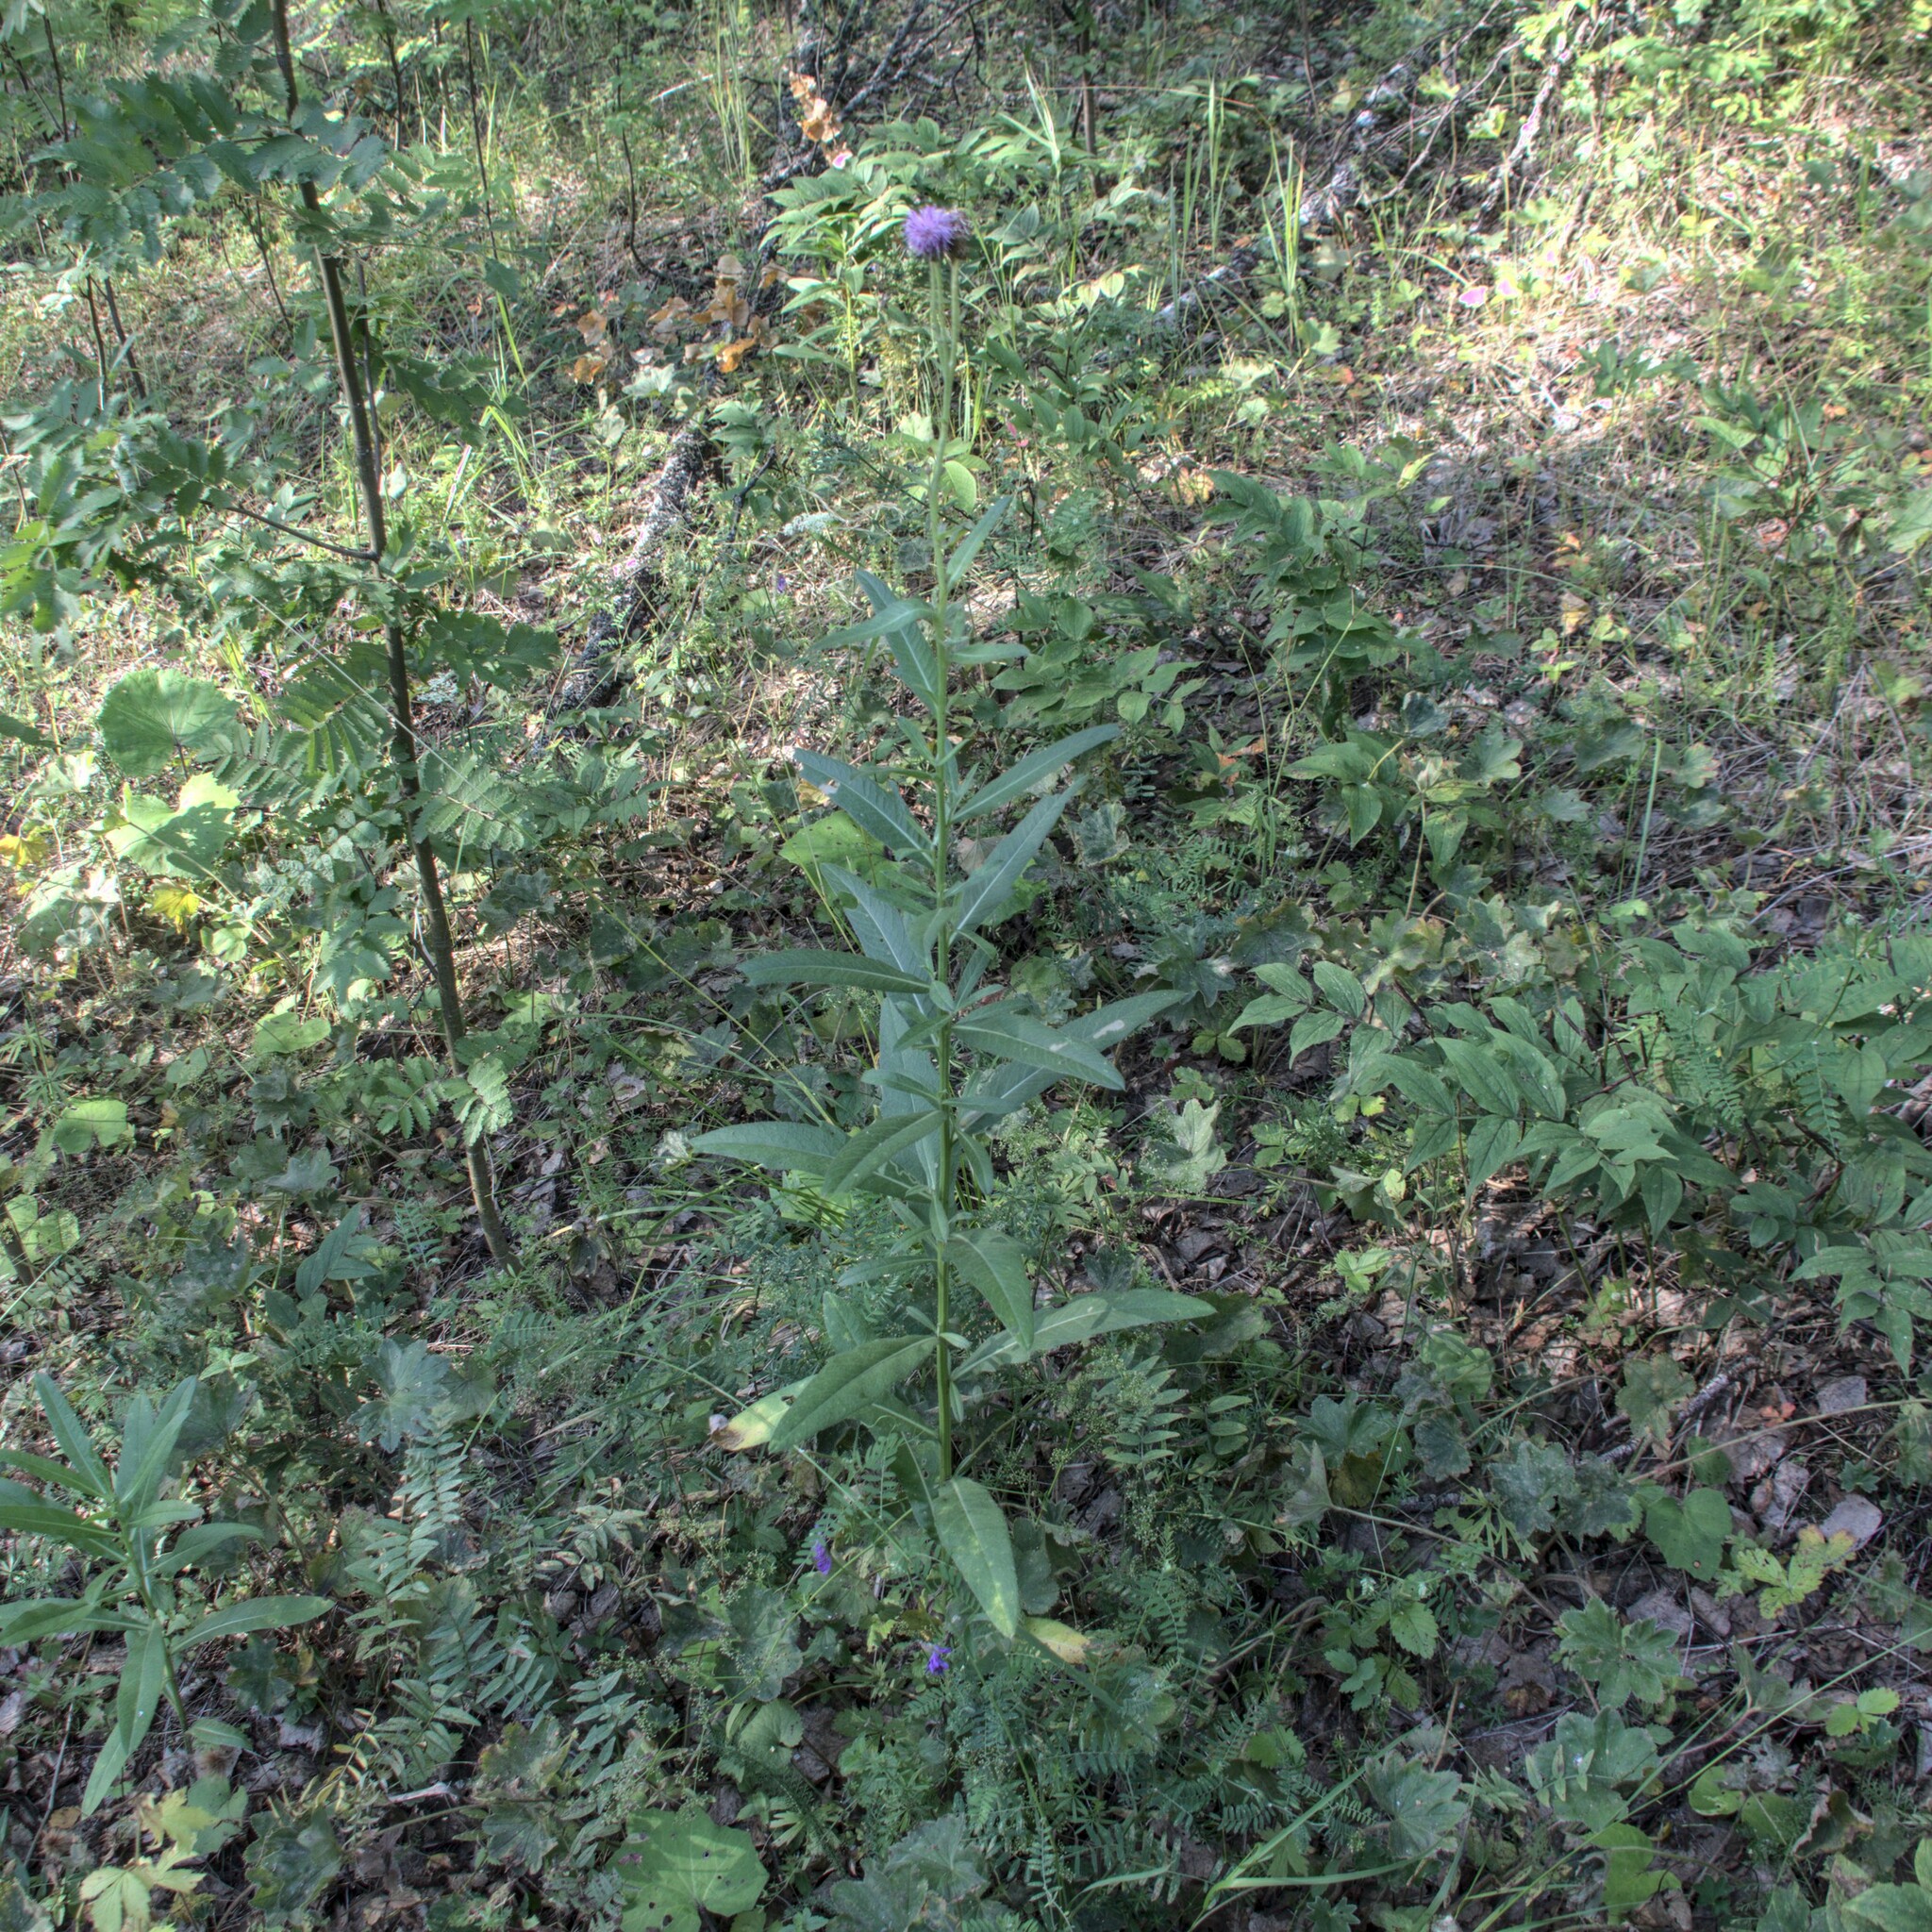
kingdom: Plantae
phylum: Tracheophyta
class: Magnoliopsida
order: Asterales
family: Asteraceae
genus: Cirsium
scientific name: Cirsium arvense
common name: Creeping thistle
